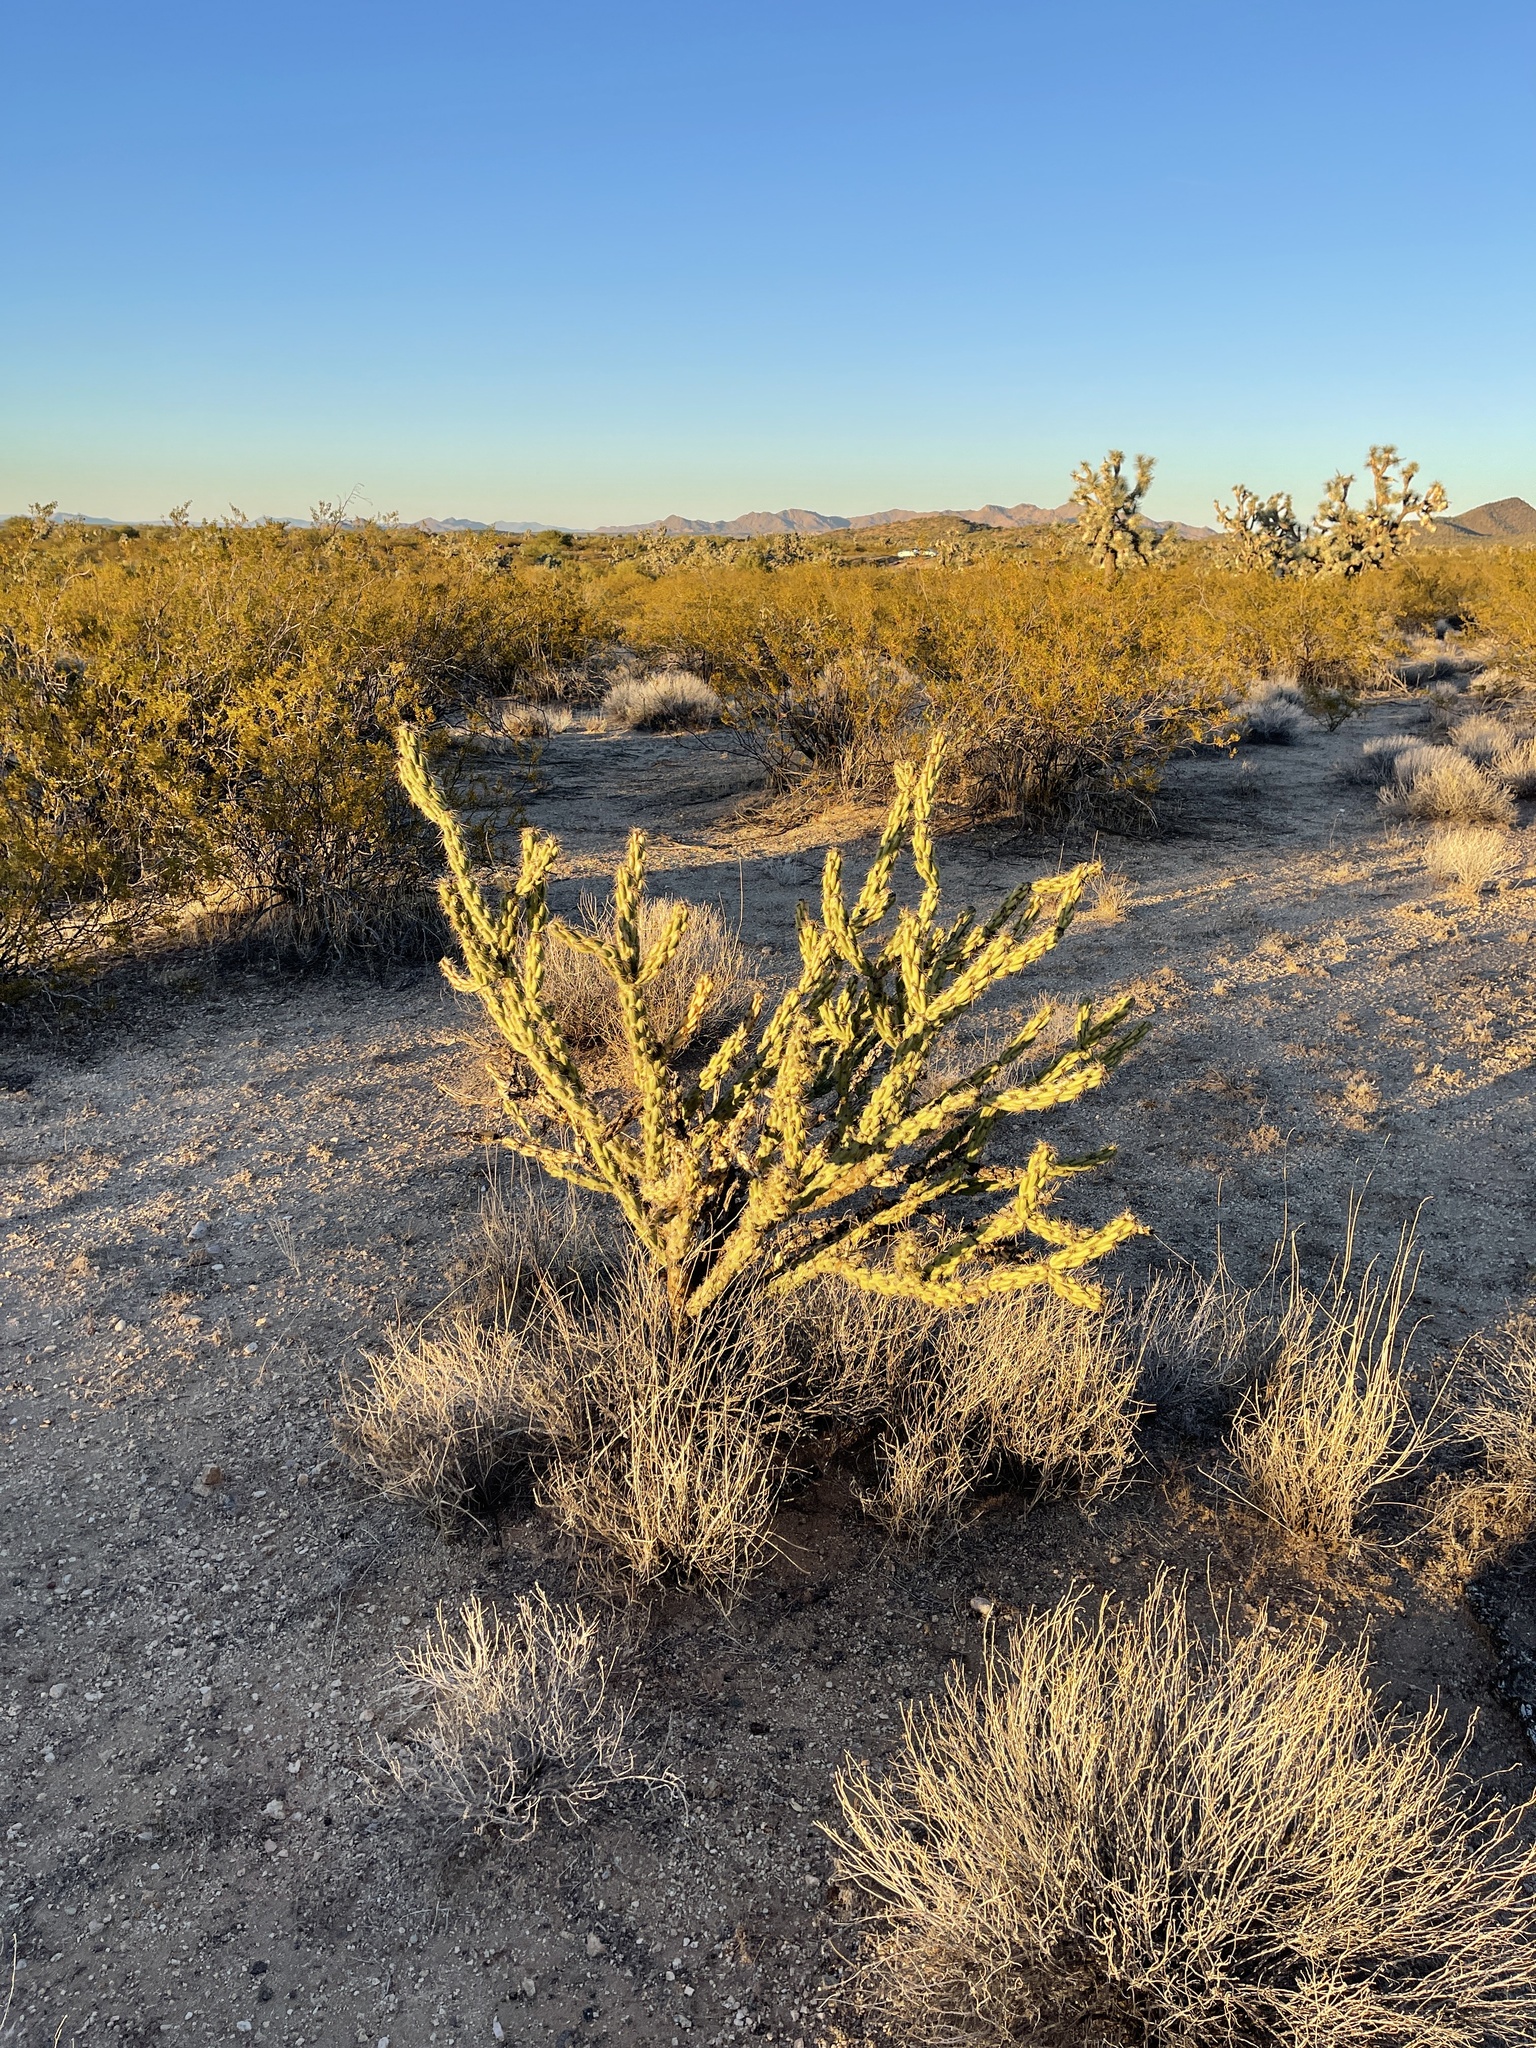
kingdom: Plantae
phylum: Tracheophyta
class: Magnoliopsida
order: Caryophyllales
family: Cactaceae
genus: Cylindropuntia
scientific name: Cylindropuntia acanthocarpa
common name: Buckhorn cholla
